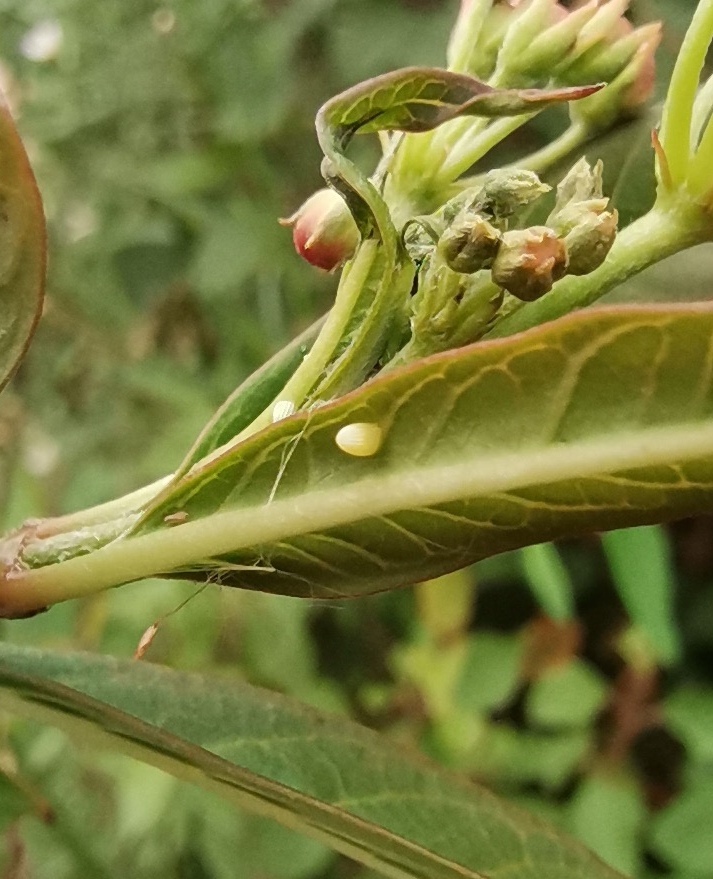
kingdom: Animalia
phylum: Arthropoda
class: Insecta
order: Lepidoptera
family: Nymphalidae
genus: Danaus
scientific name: Danaus plexippus
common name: Monarch
